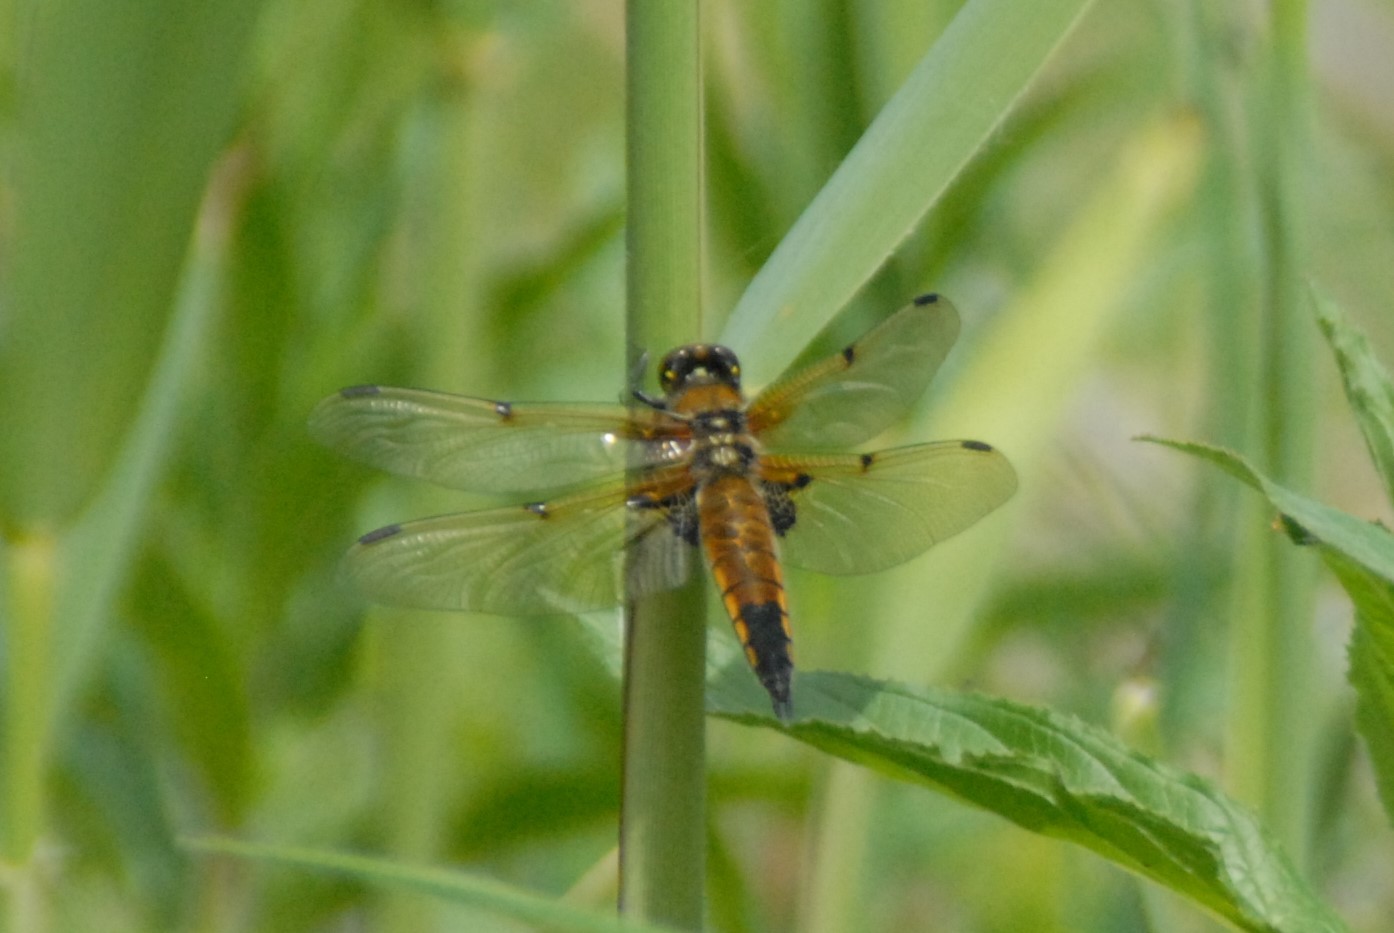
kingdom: Animalia
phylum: Arthropoda
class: Insecta
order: Odonata
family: Libellulidae
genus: Libellula
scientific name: Libellula quadrimaculata
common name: Four-spotted chaser
